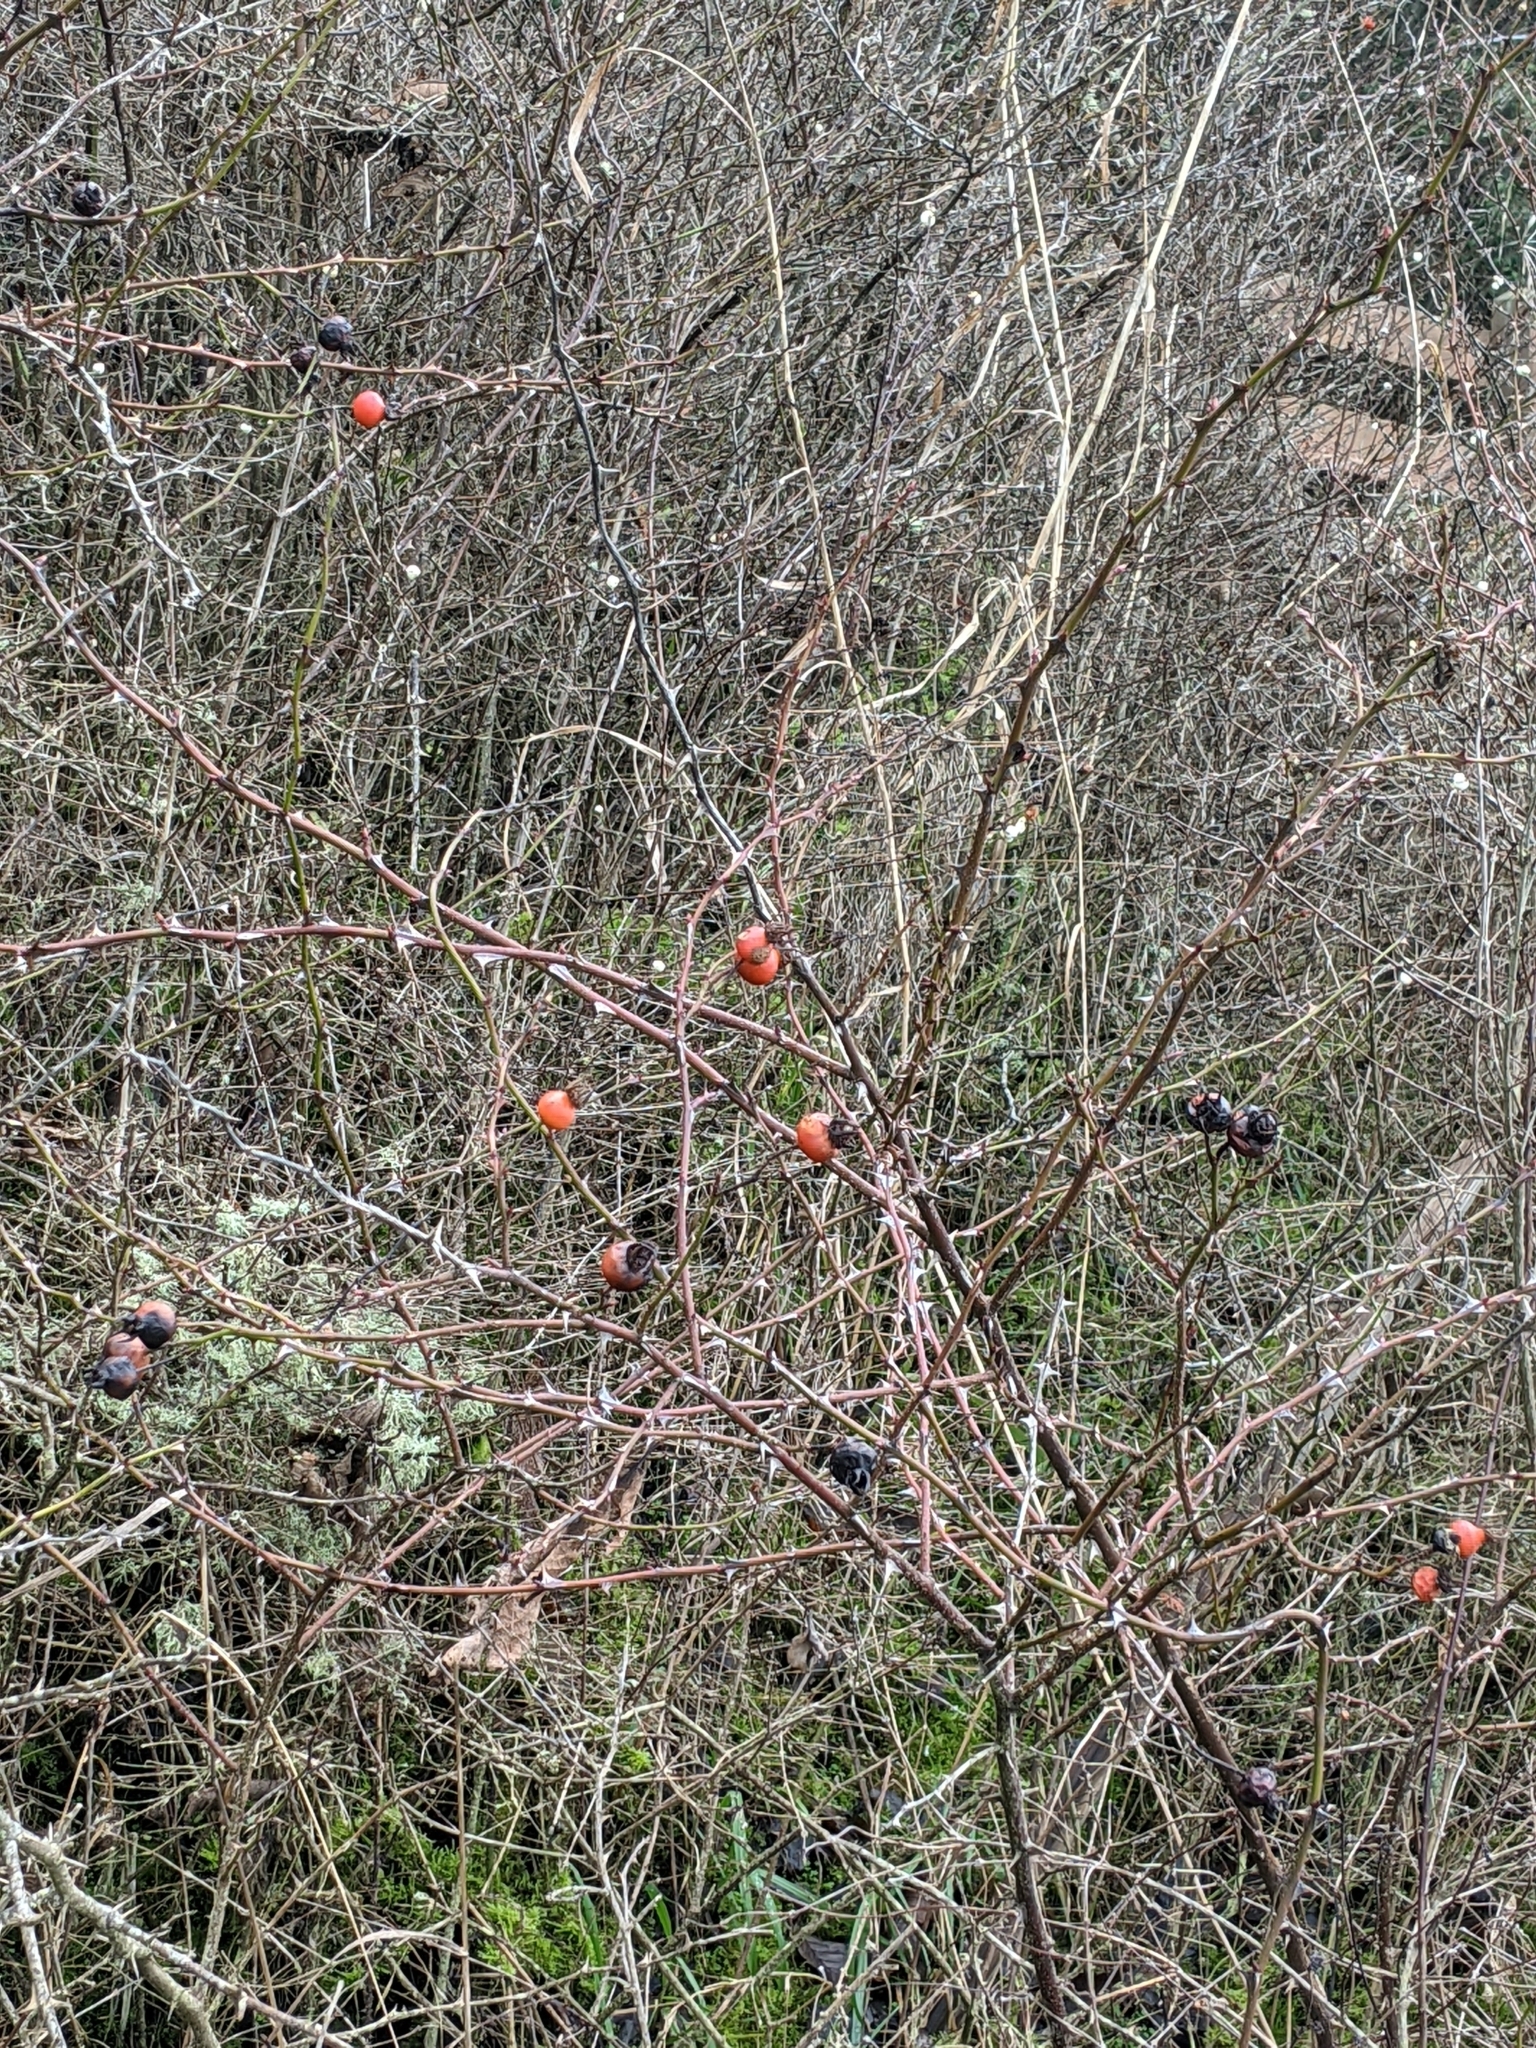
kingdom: Plantae
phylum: Tracheophyta
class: Magnoliopsida
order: Rosales
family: Rosaceae
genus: Rosa
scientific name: Rosa nutkana
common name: Nootka rose
